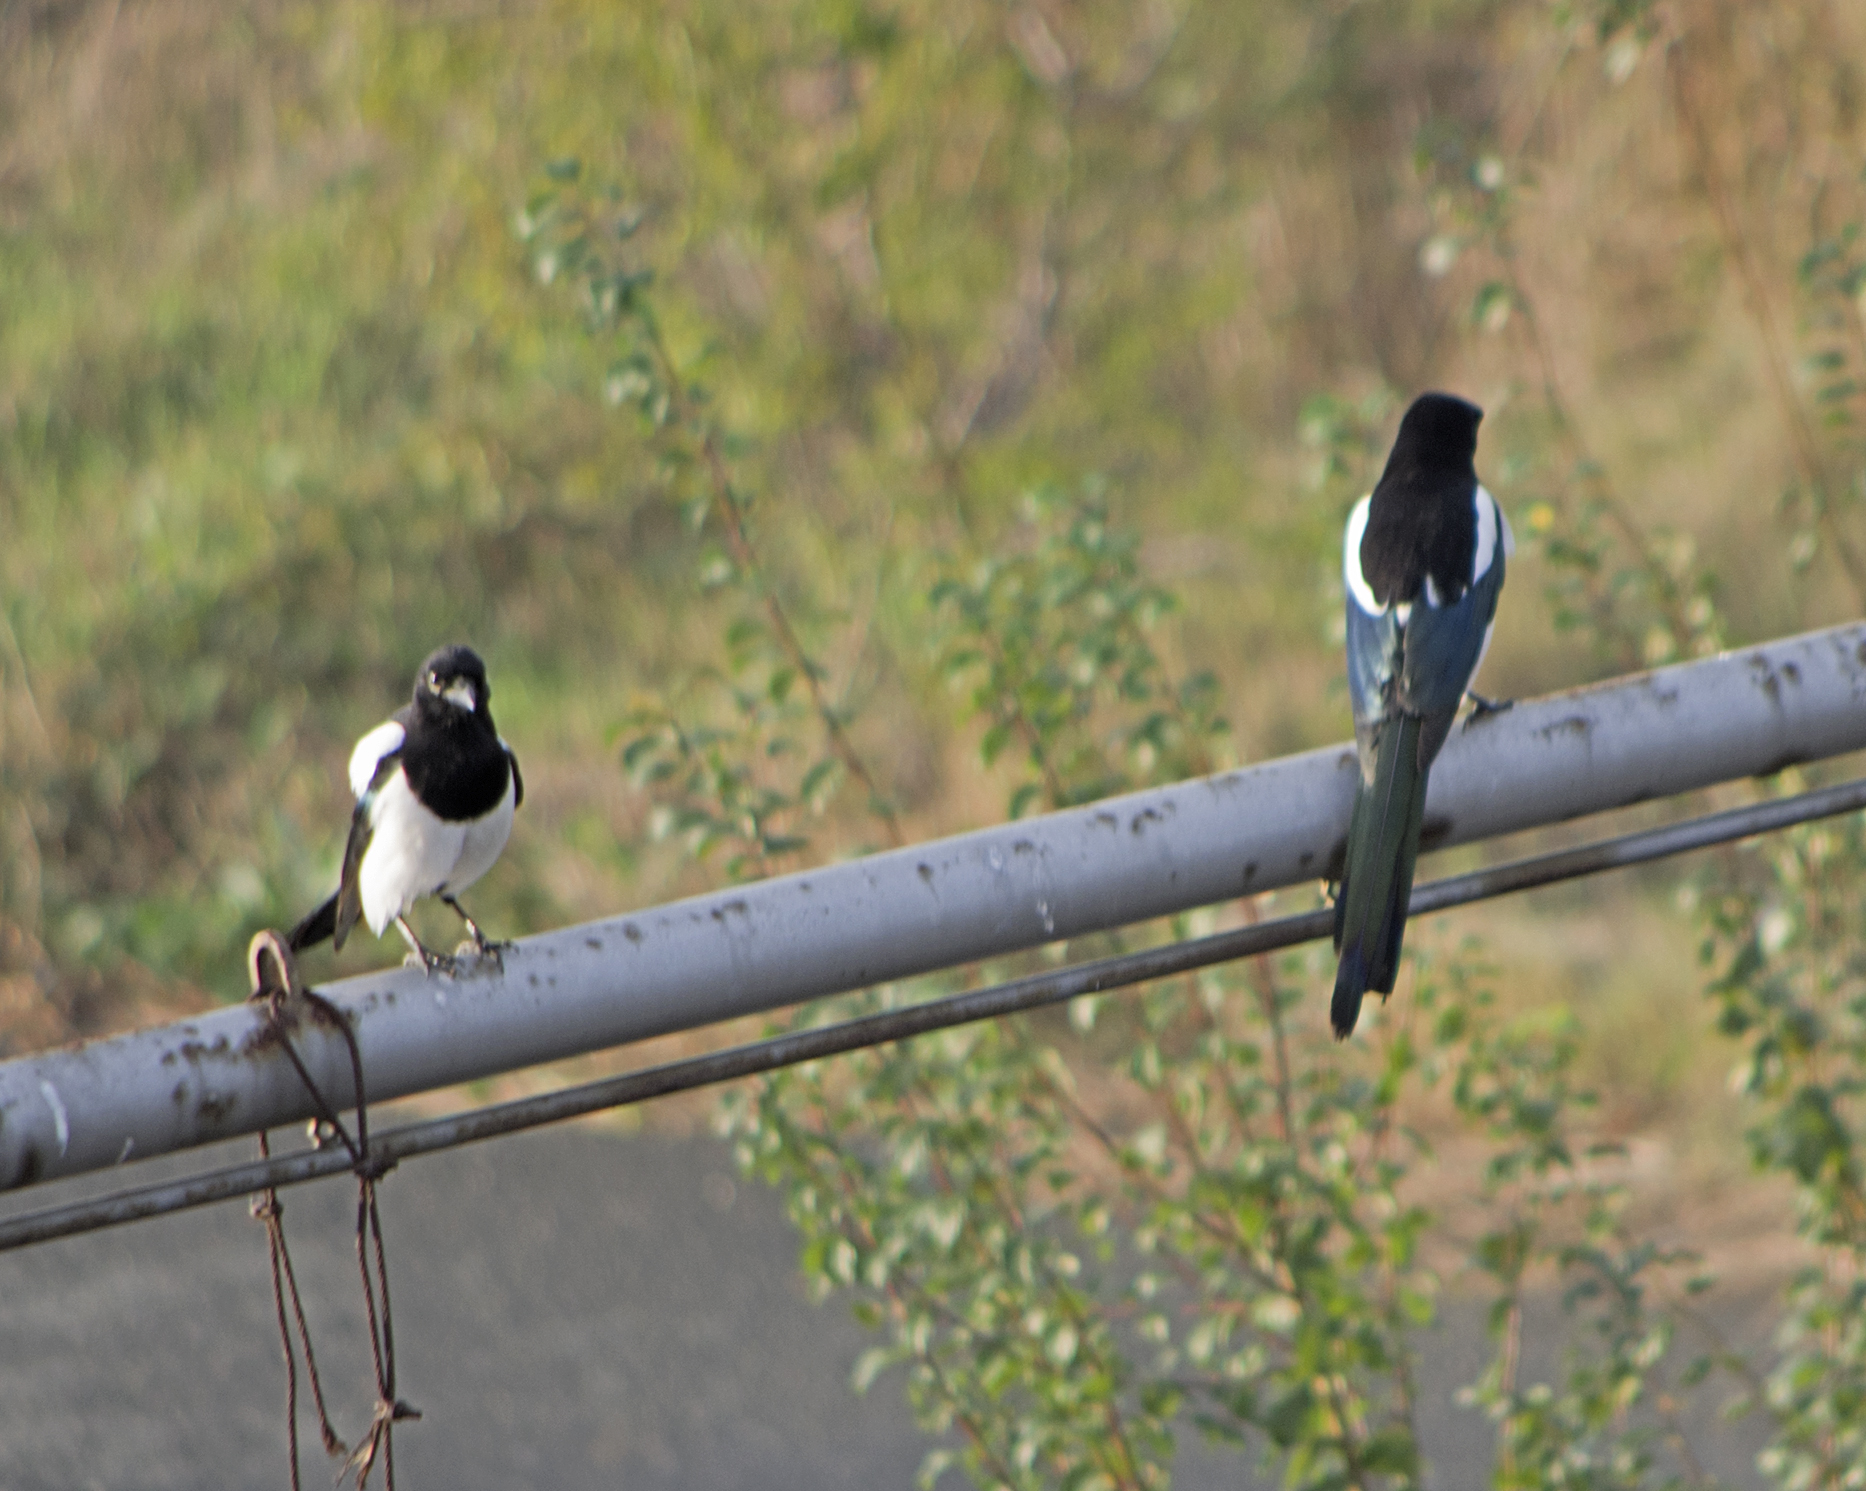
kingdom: Animalia
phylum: Chordata
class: Aves
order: Passeriformes
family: Corvidae
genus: Pica
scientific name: Pica pica
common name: Eurasian magpie
